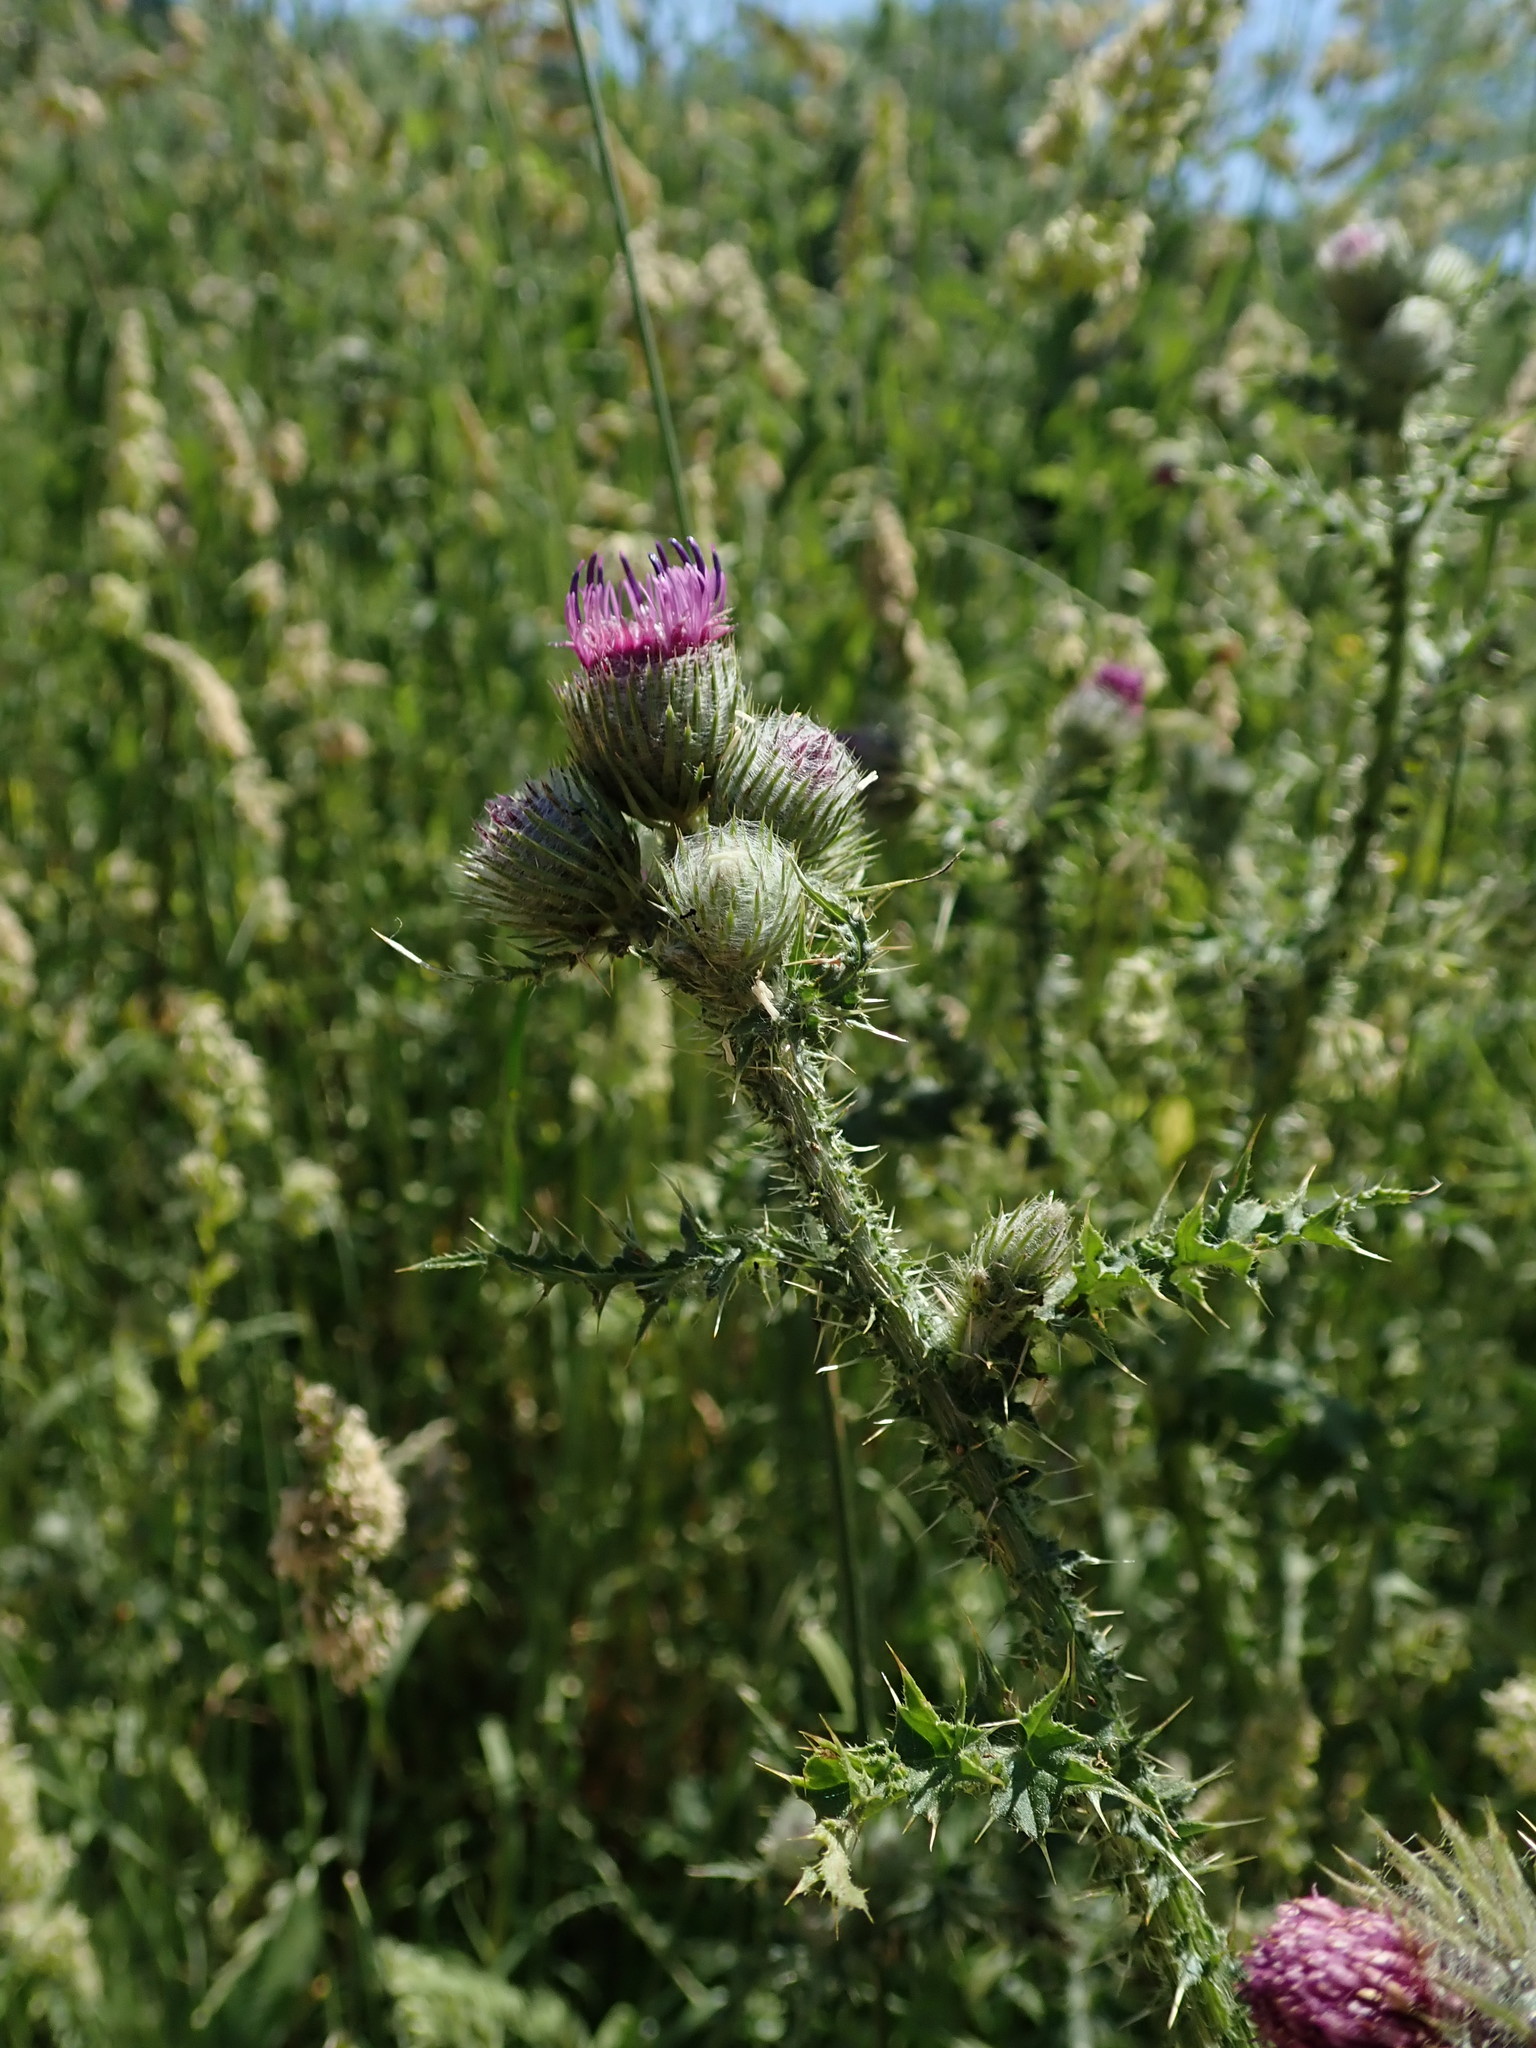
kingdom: Plantae
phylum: Tracheophyta
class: Magnoliopsida
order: Asterales
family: Asteraceae
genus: Carduus
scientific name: Carduus crispus
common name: Welted thistle
